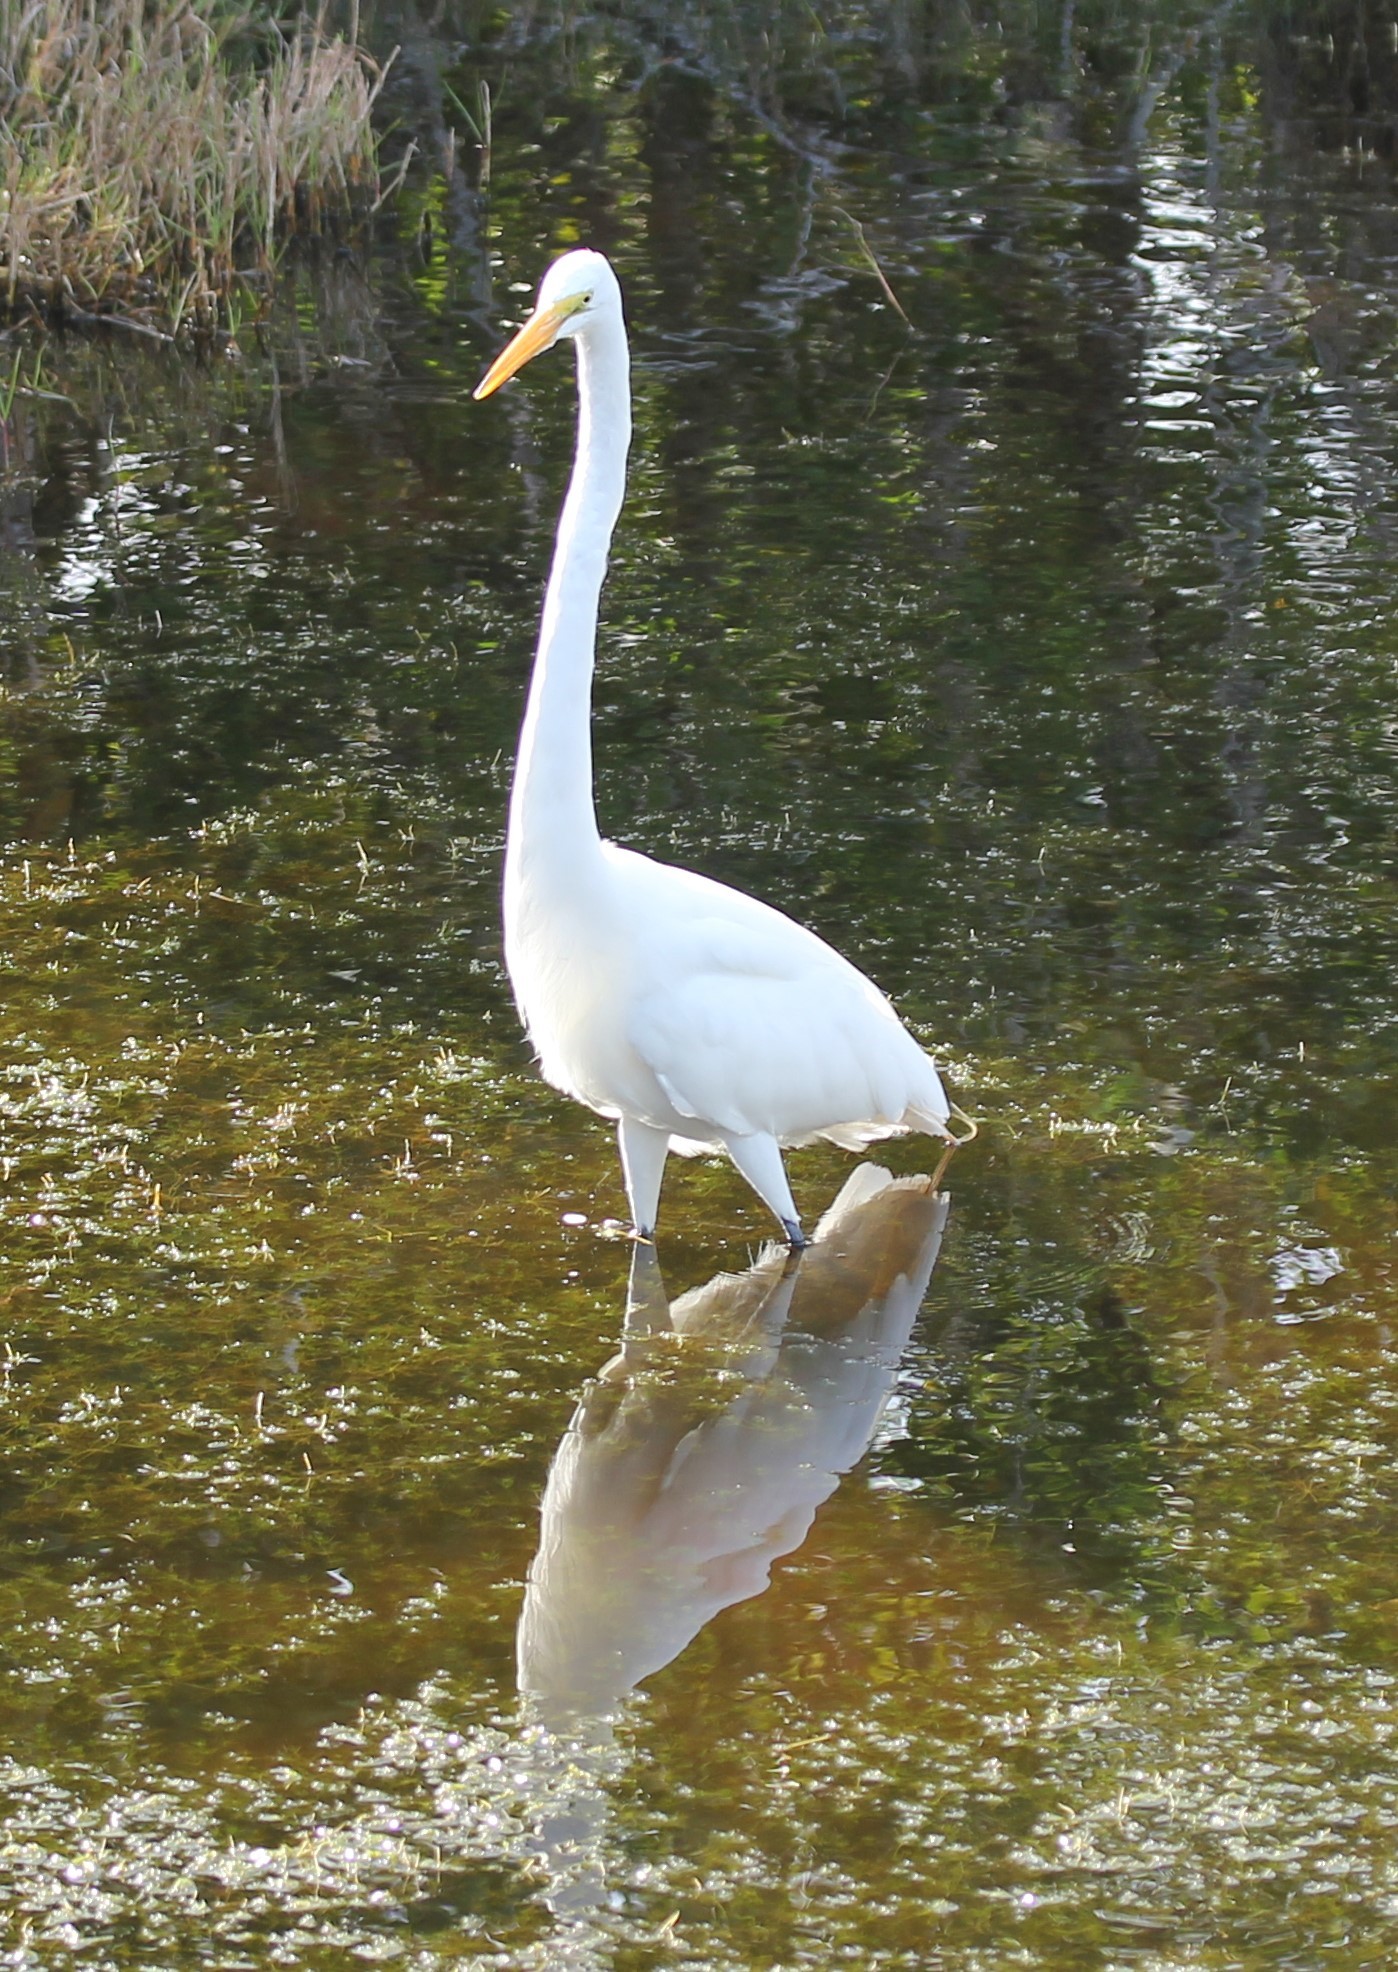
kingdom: Animalia
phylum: Chordata
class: Aves
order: Pelecaniformes
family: Ardeidae
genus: Ardea
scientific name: Ardea alba
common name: Great egret
